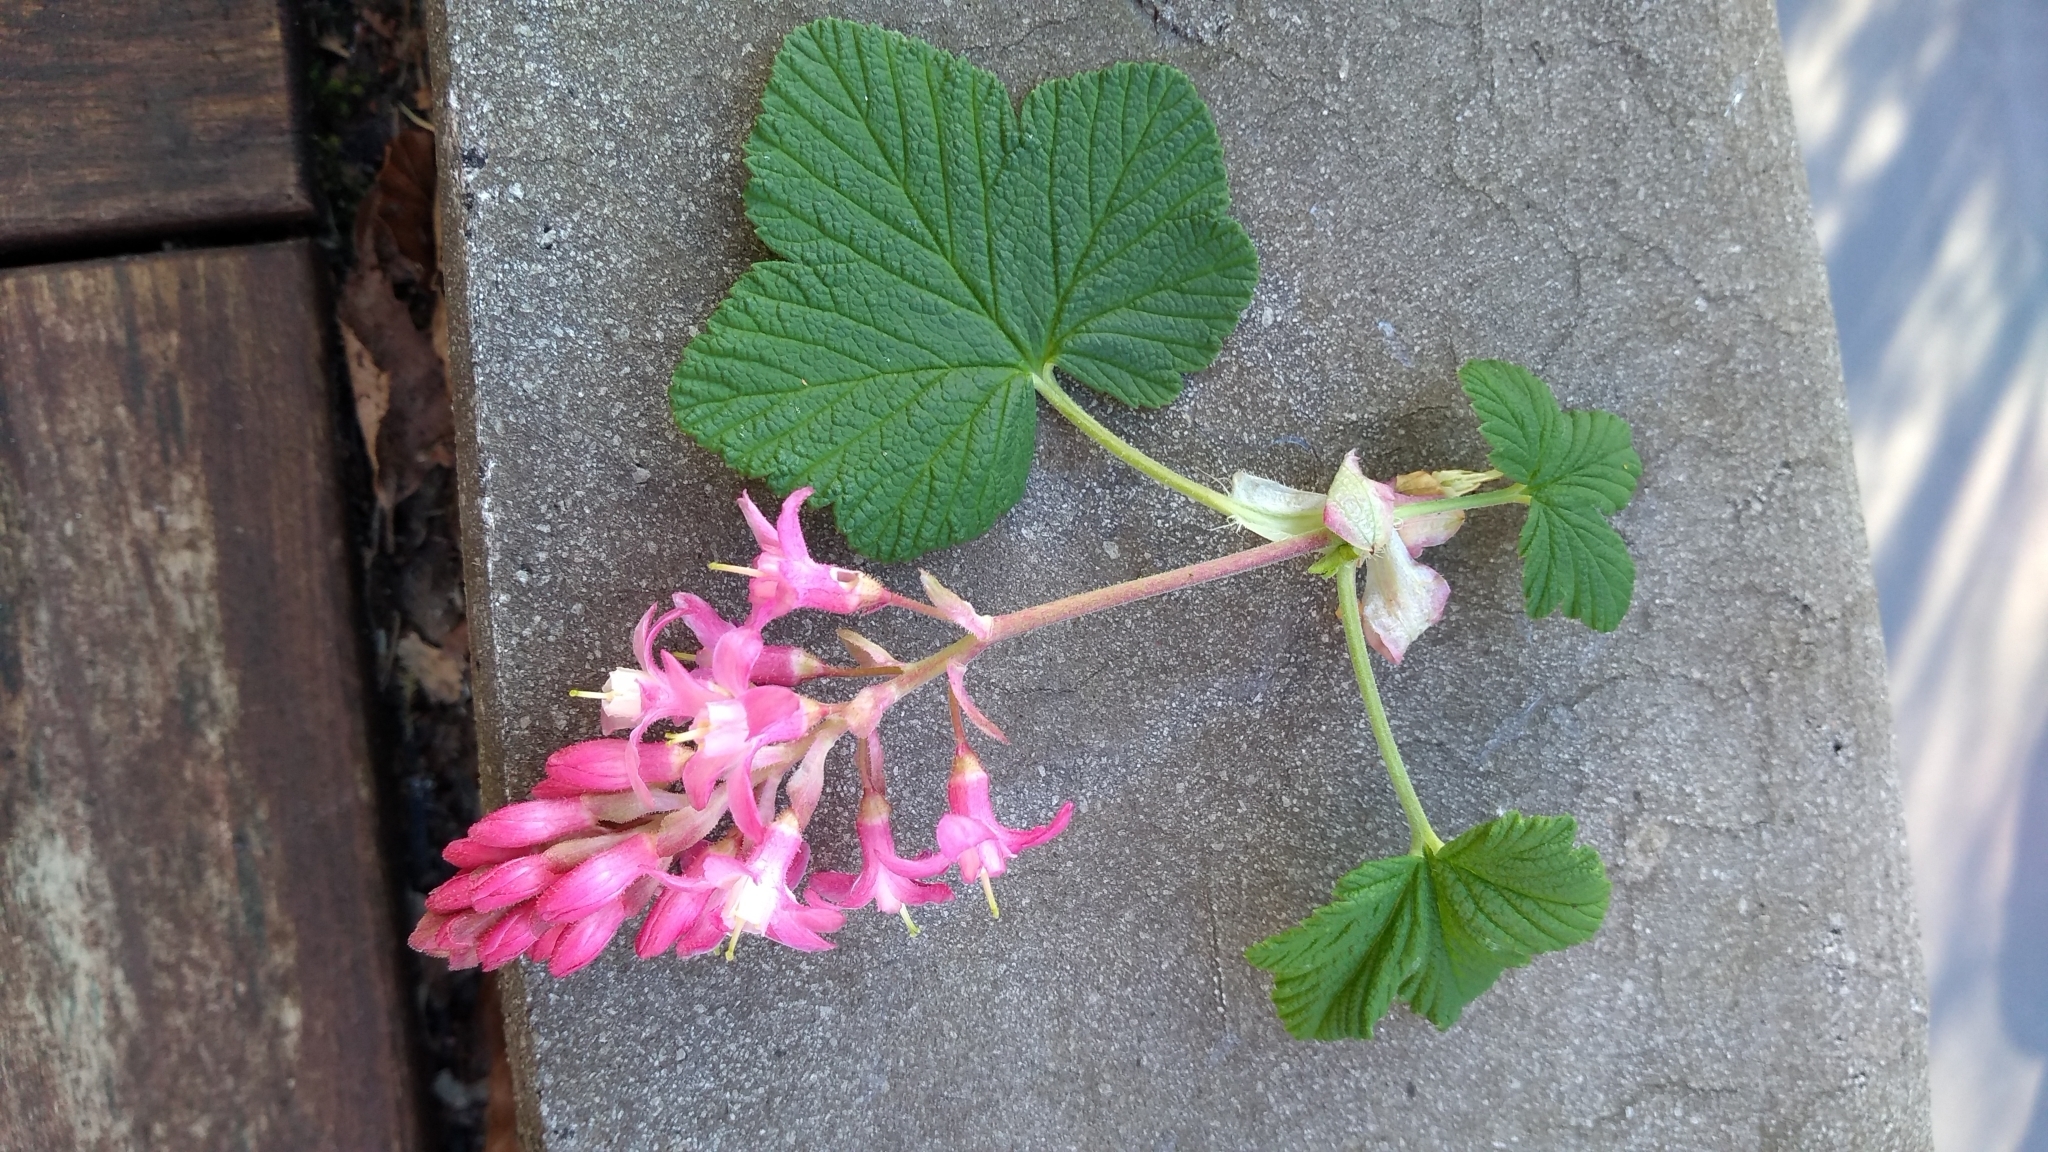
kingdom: Plantae
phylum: Tracheophyta
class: Magnoliopsida
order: Saxifragales
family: Grossulariaceae
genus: Ribes
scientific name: Ribes sanguineum
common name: Flowering currant
